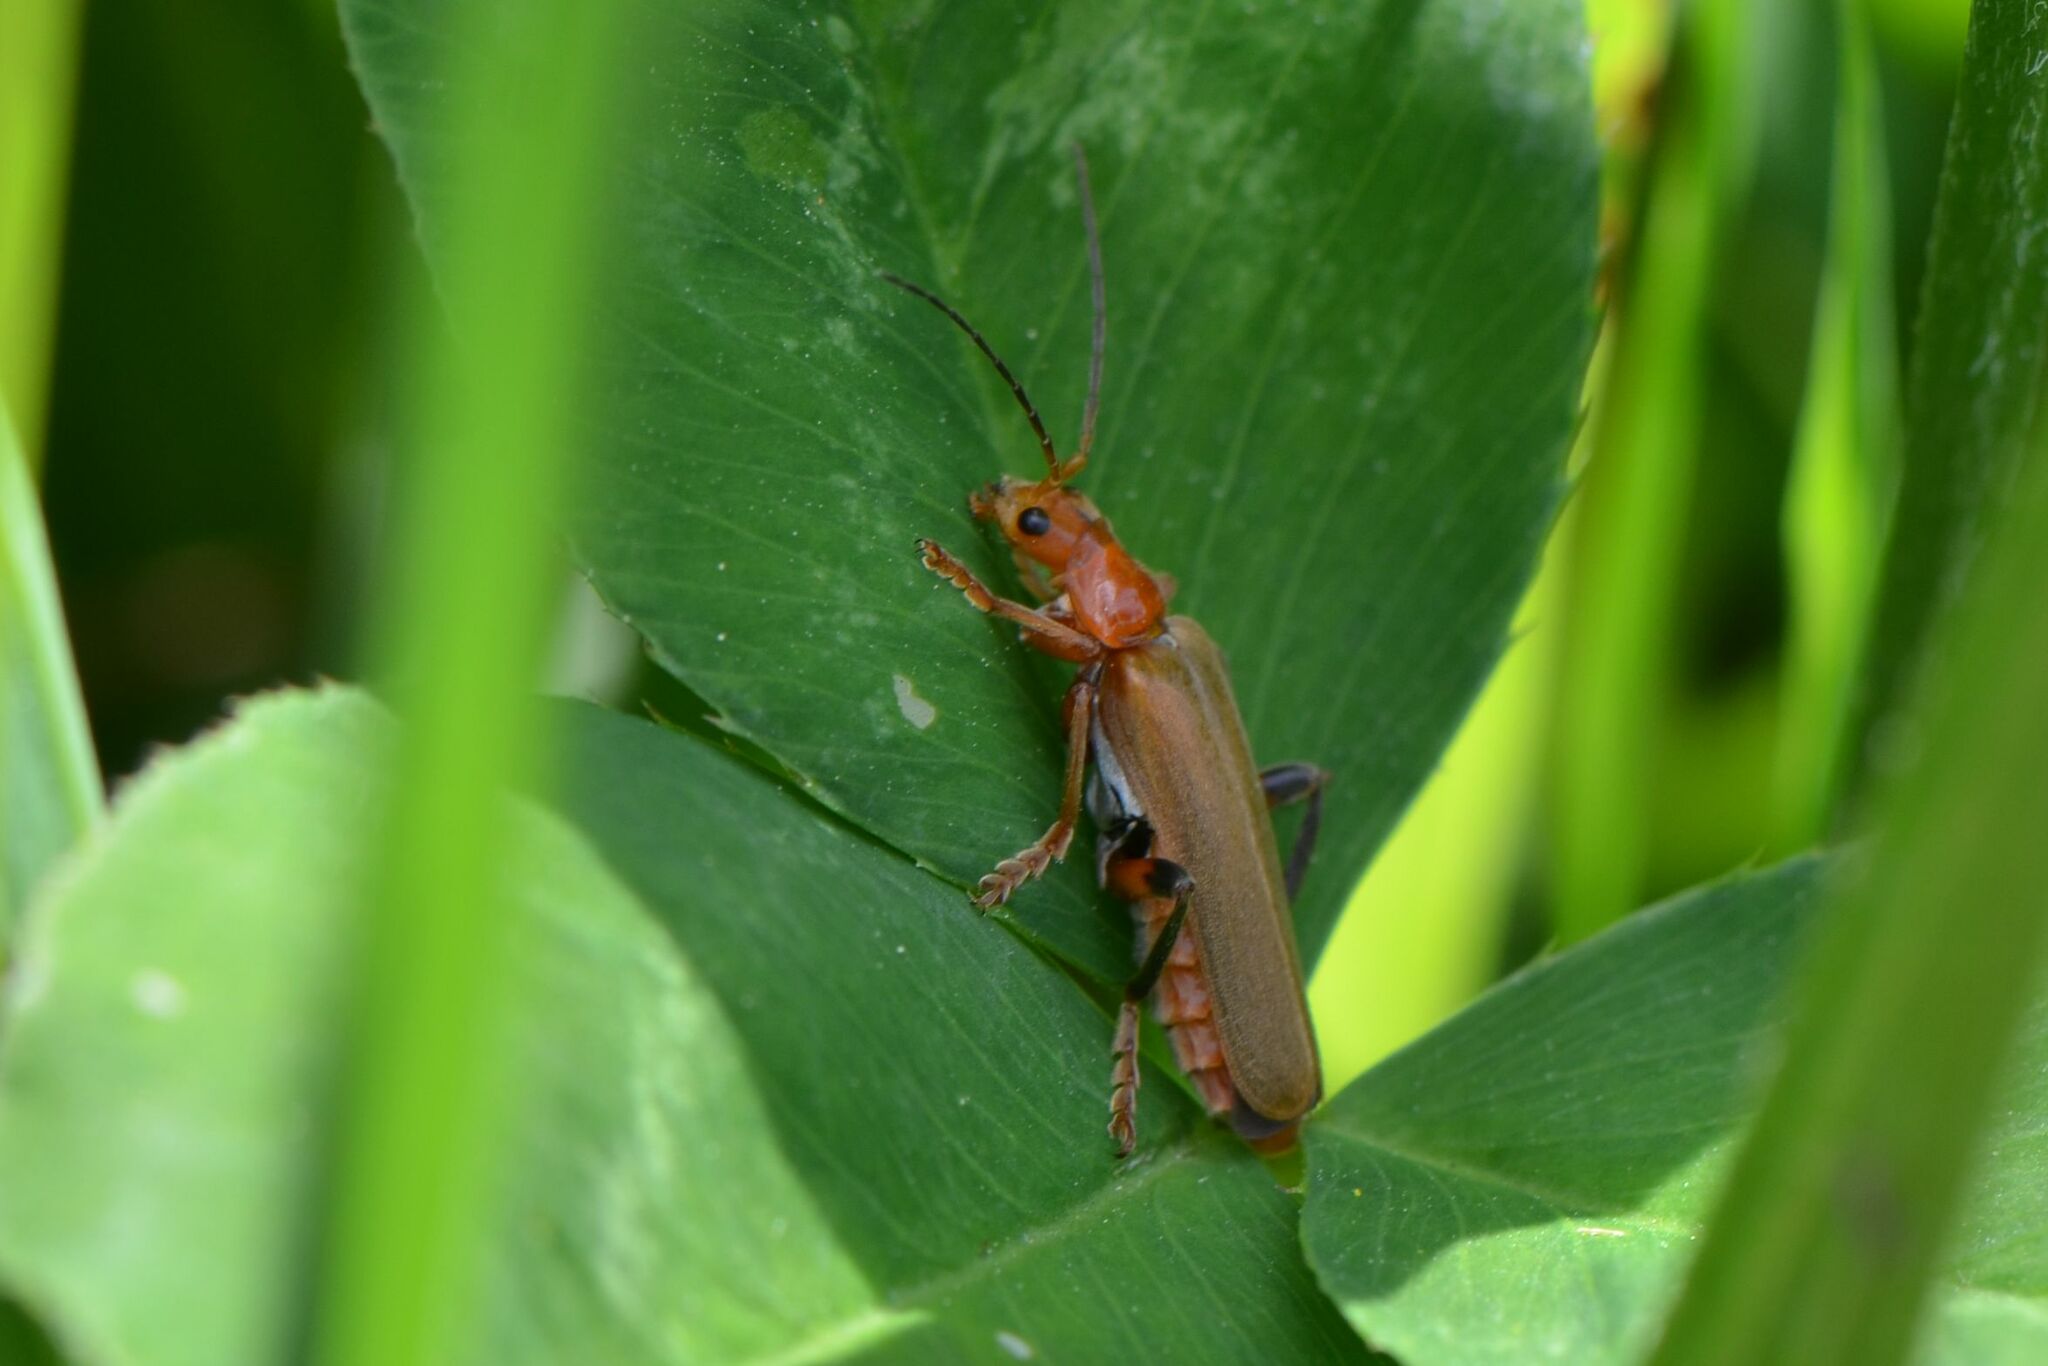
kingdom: Animalia
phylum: Arthropoda
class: Insecta
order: Coleoptera
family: Cantharidae
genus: Cantharis
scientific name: Cantharis livida
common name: Livid soldier beetle
